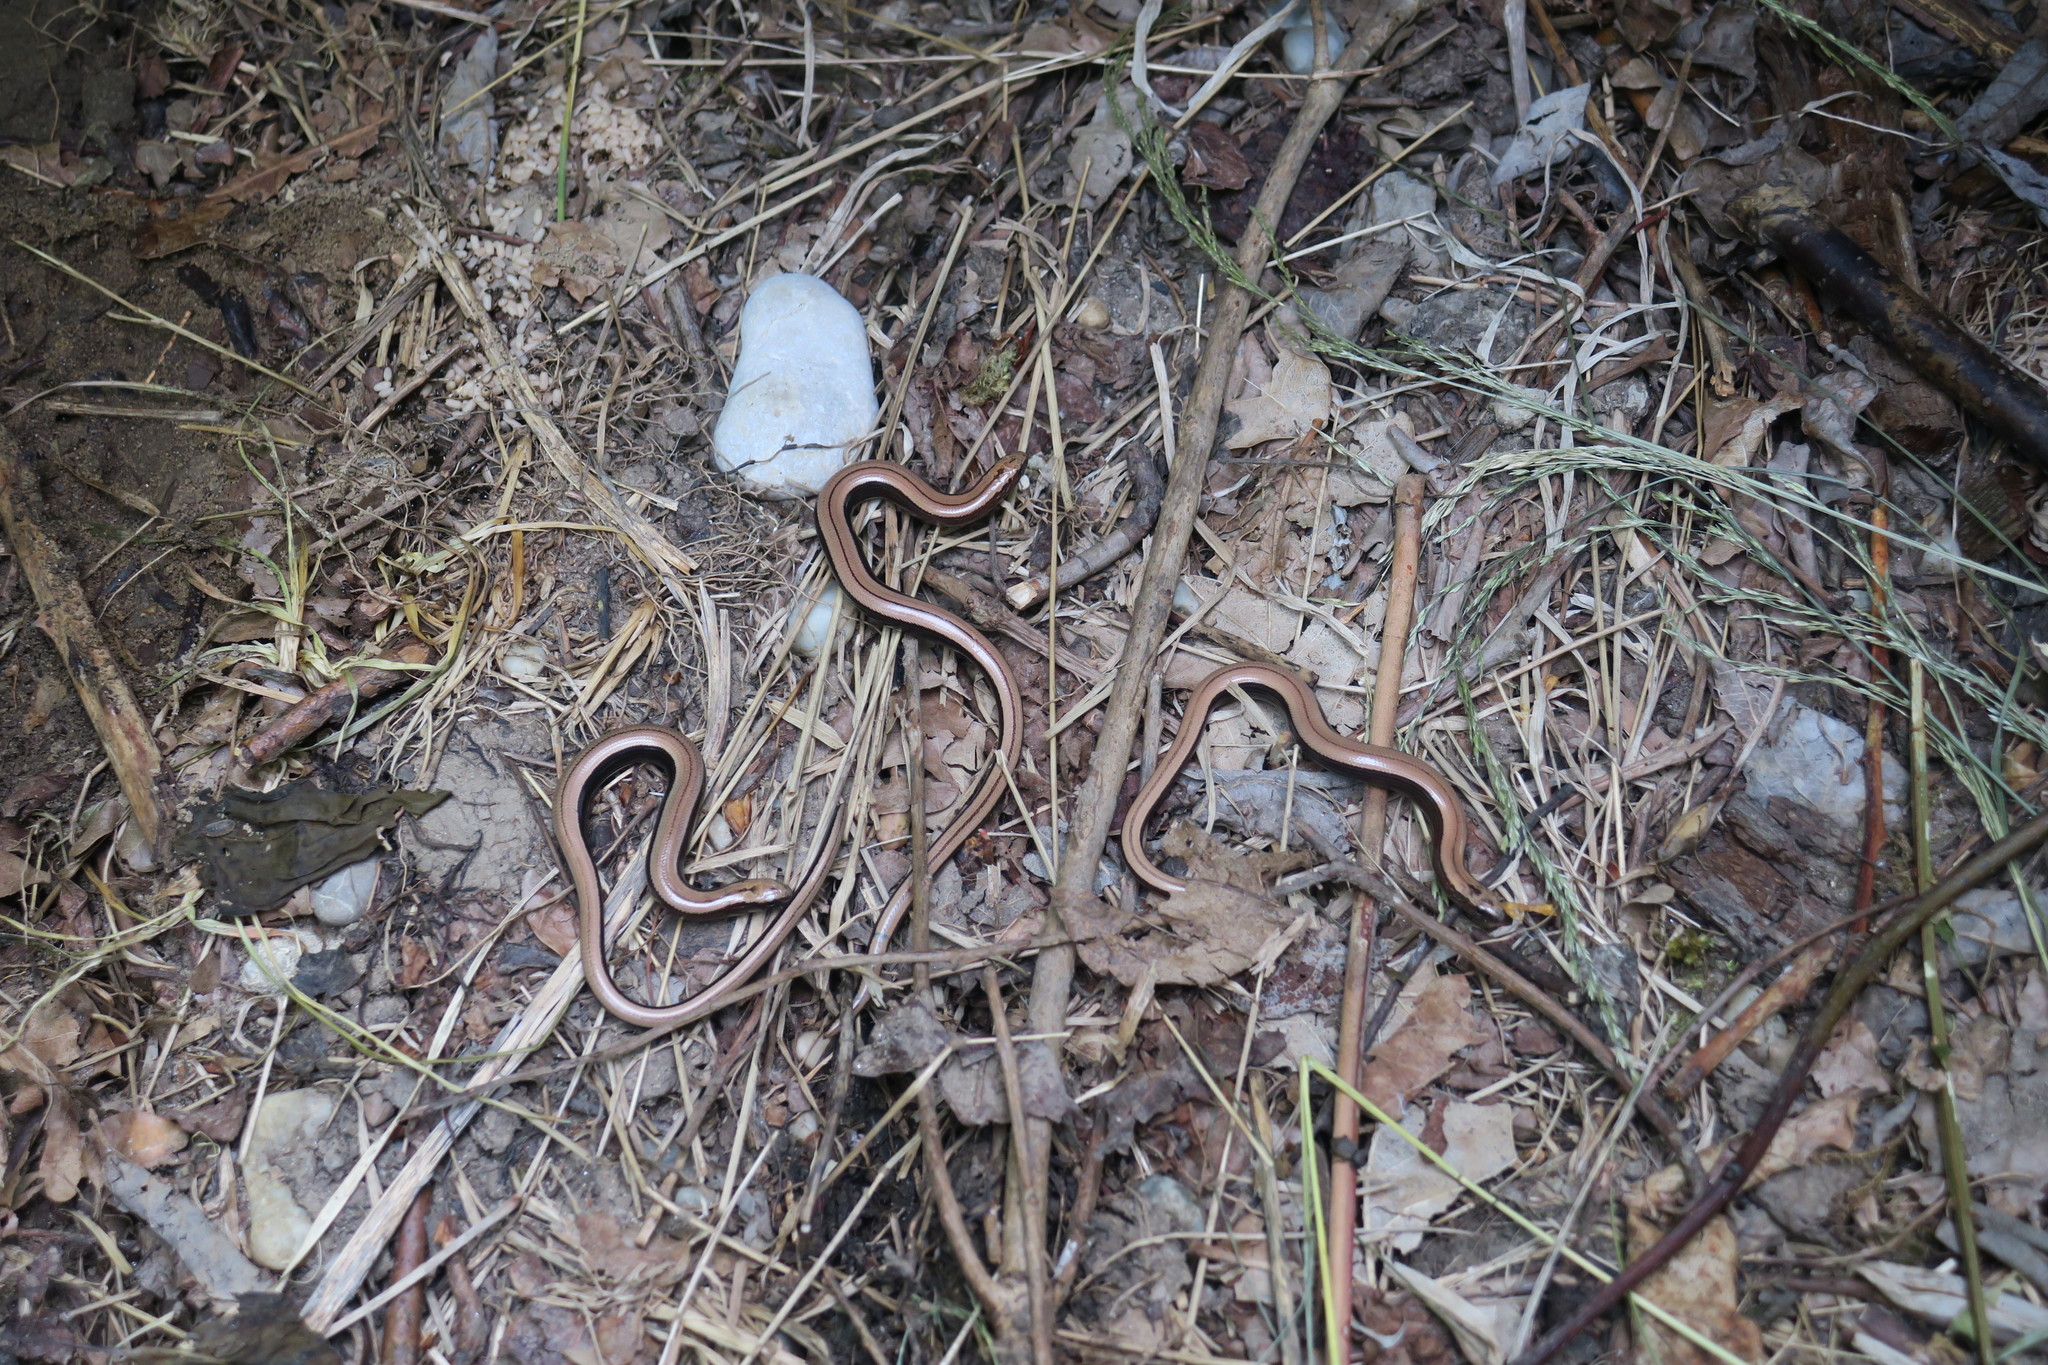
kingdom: Animalia
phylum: Chordata
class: Squamata
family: Anguidae
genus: Anguis
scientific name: Anguis fragilis
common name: Slow worm
